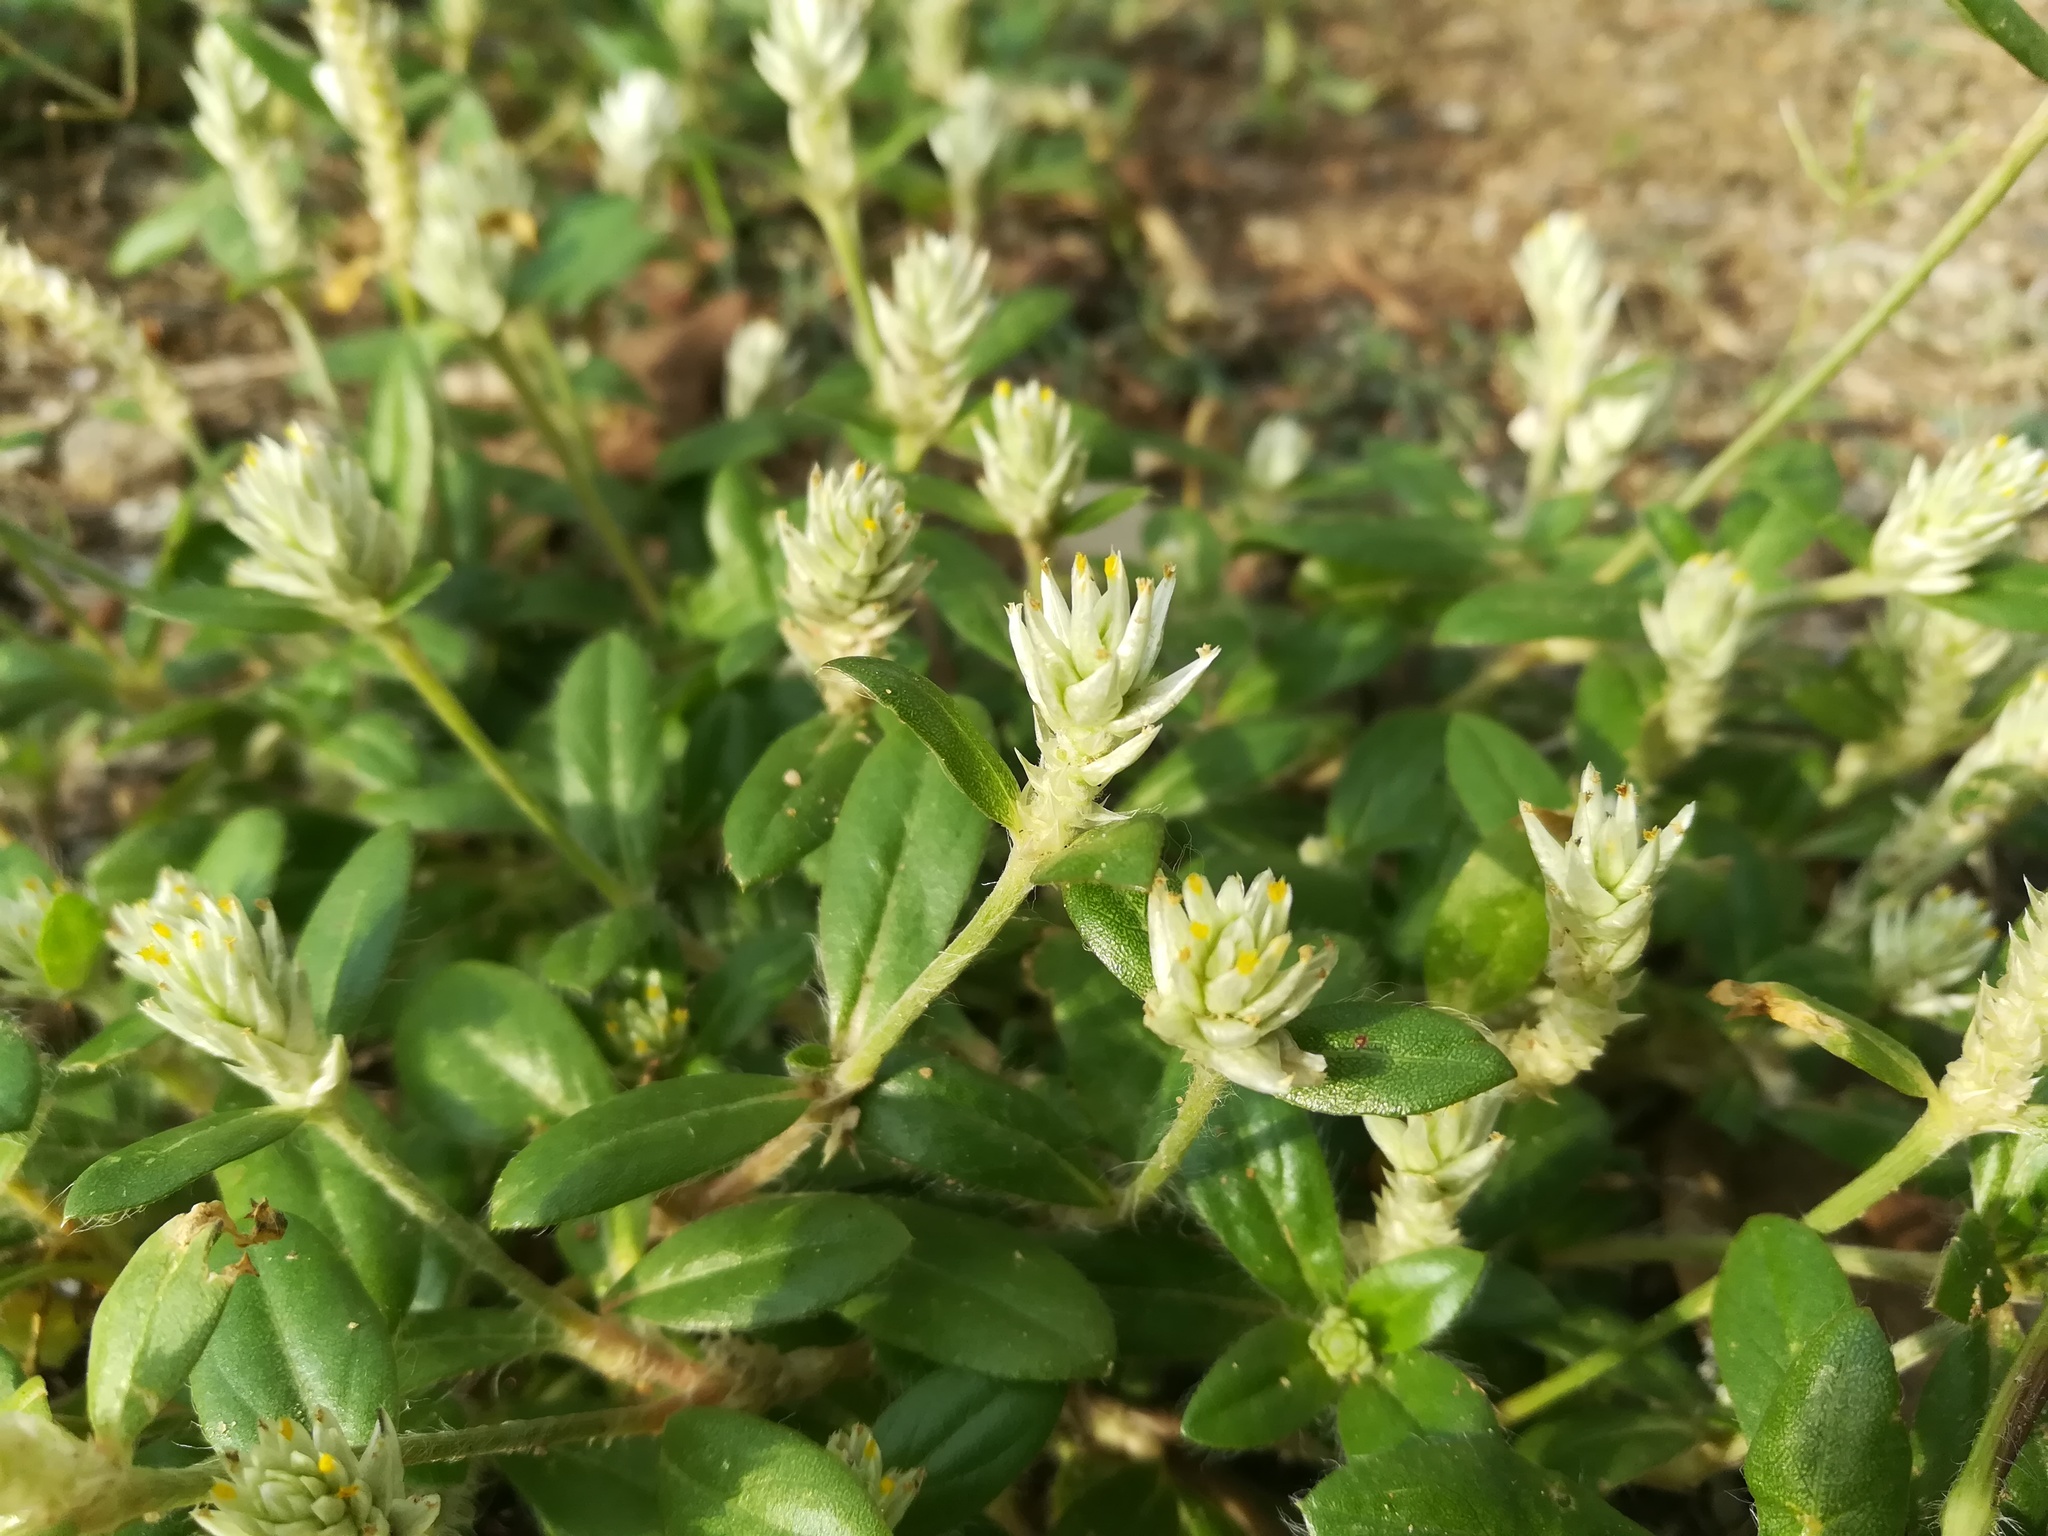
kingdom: Plantae
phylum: Tracheophyta
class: Magnoliopsida
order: Caryophyllales
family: Amaranthaceae
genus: Gomphrena
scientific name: Gomphrena celosioides
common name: Gomphrena-weed
